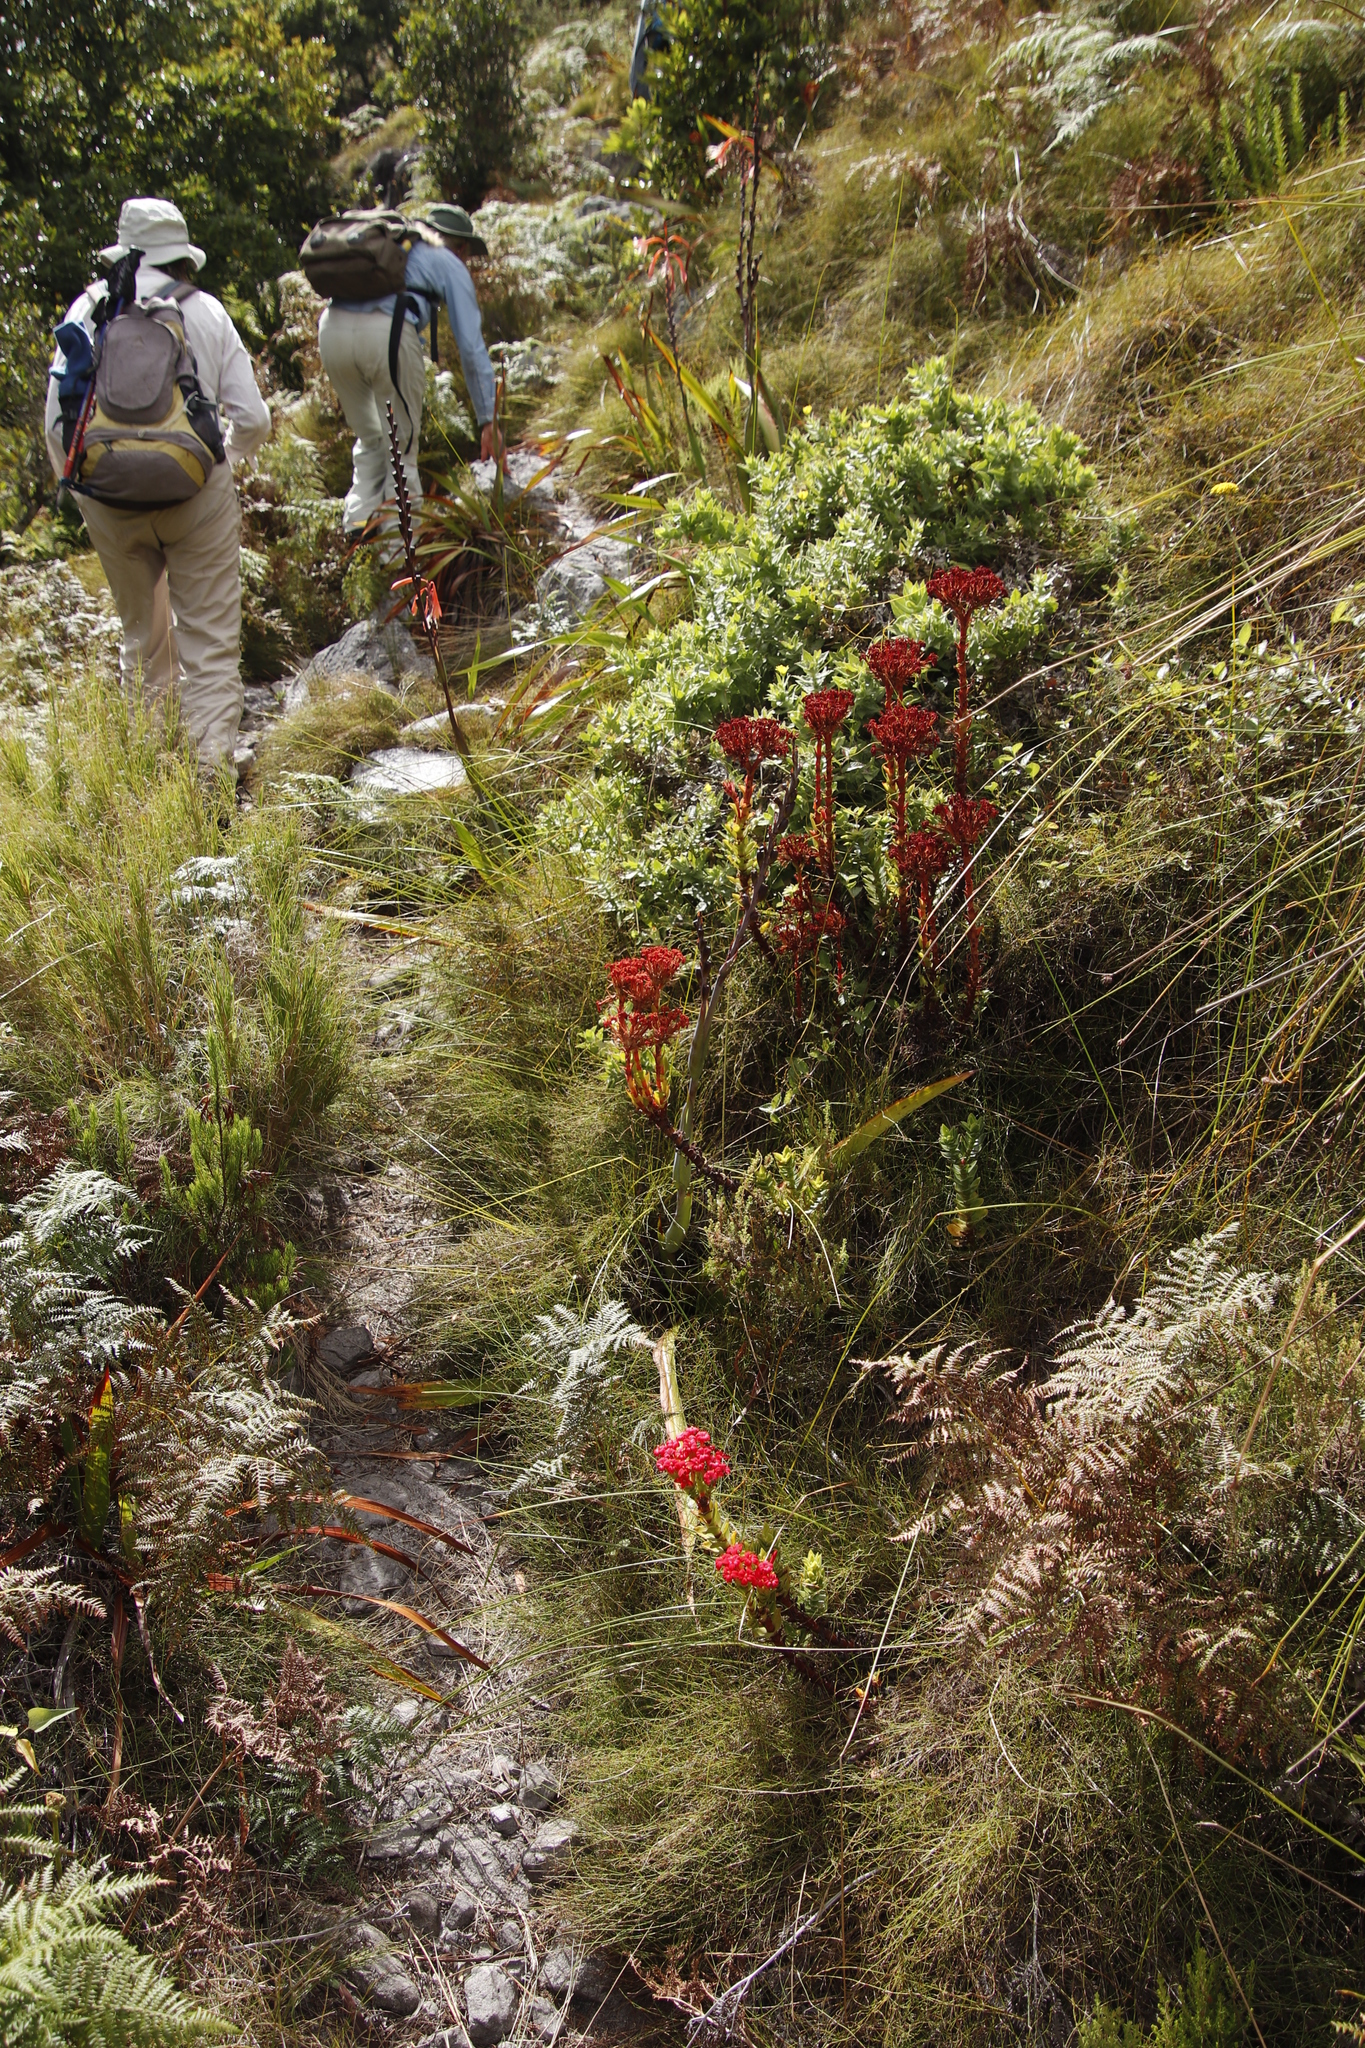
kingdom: Plantae
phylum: Tracheophyta
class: Magnoliopsida
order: Saxifragales
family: Crassulaceae
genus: Crassula
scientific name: Crassula coccinea
